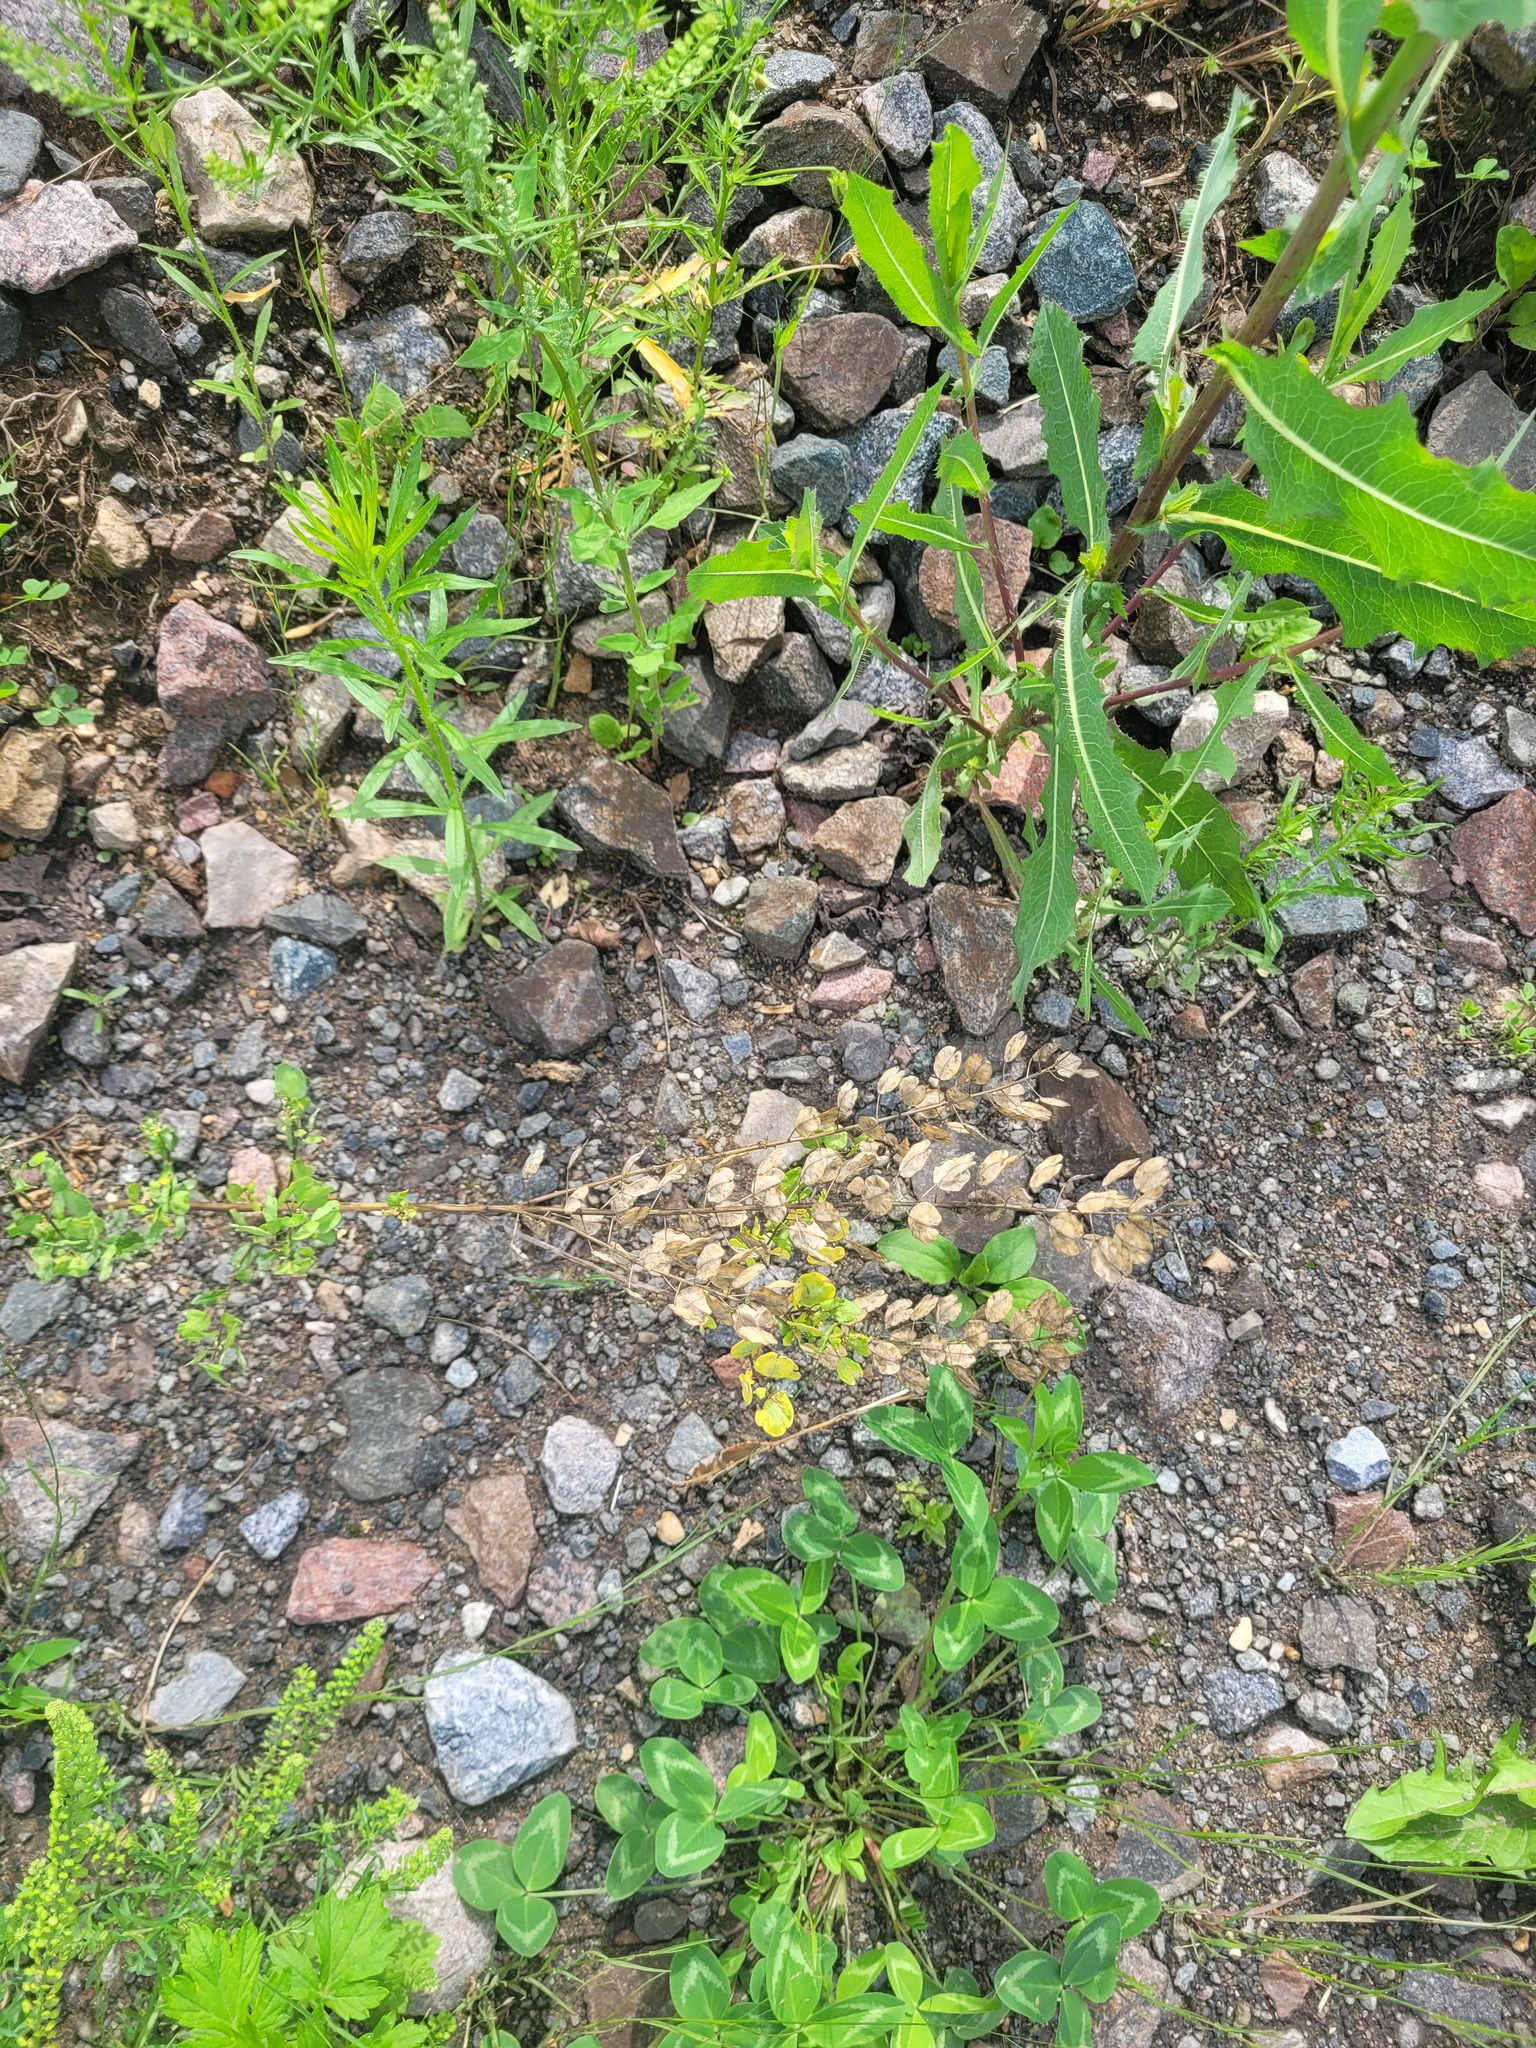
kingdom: Plantae
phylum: Tracheophyta
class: Magnoliopsida
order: Brassicales
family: Brassicaceae
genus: Thlaspi
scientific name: Thlaspi arvense
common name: Field pennycress
